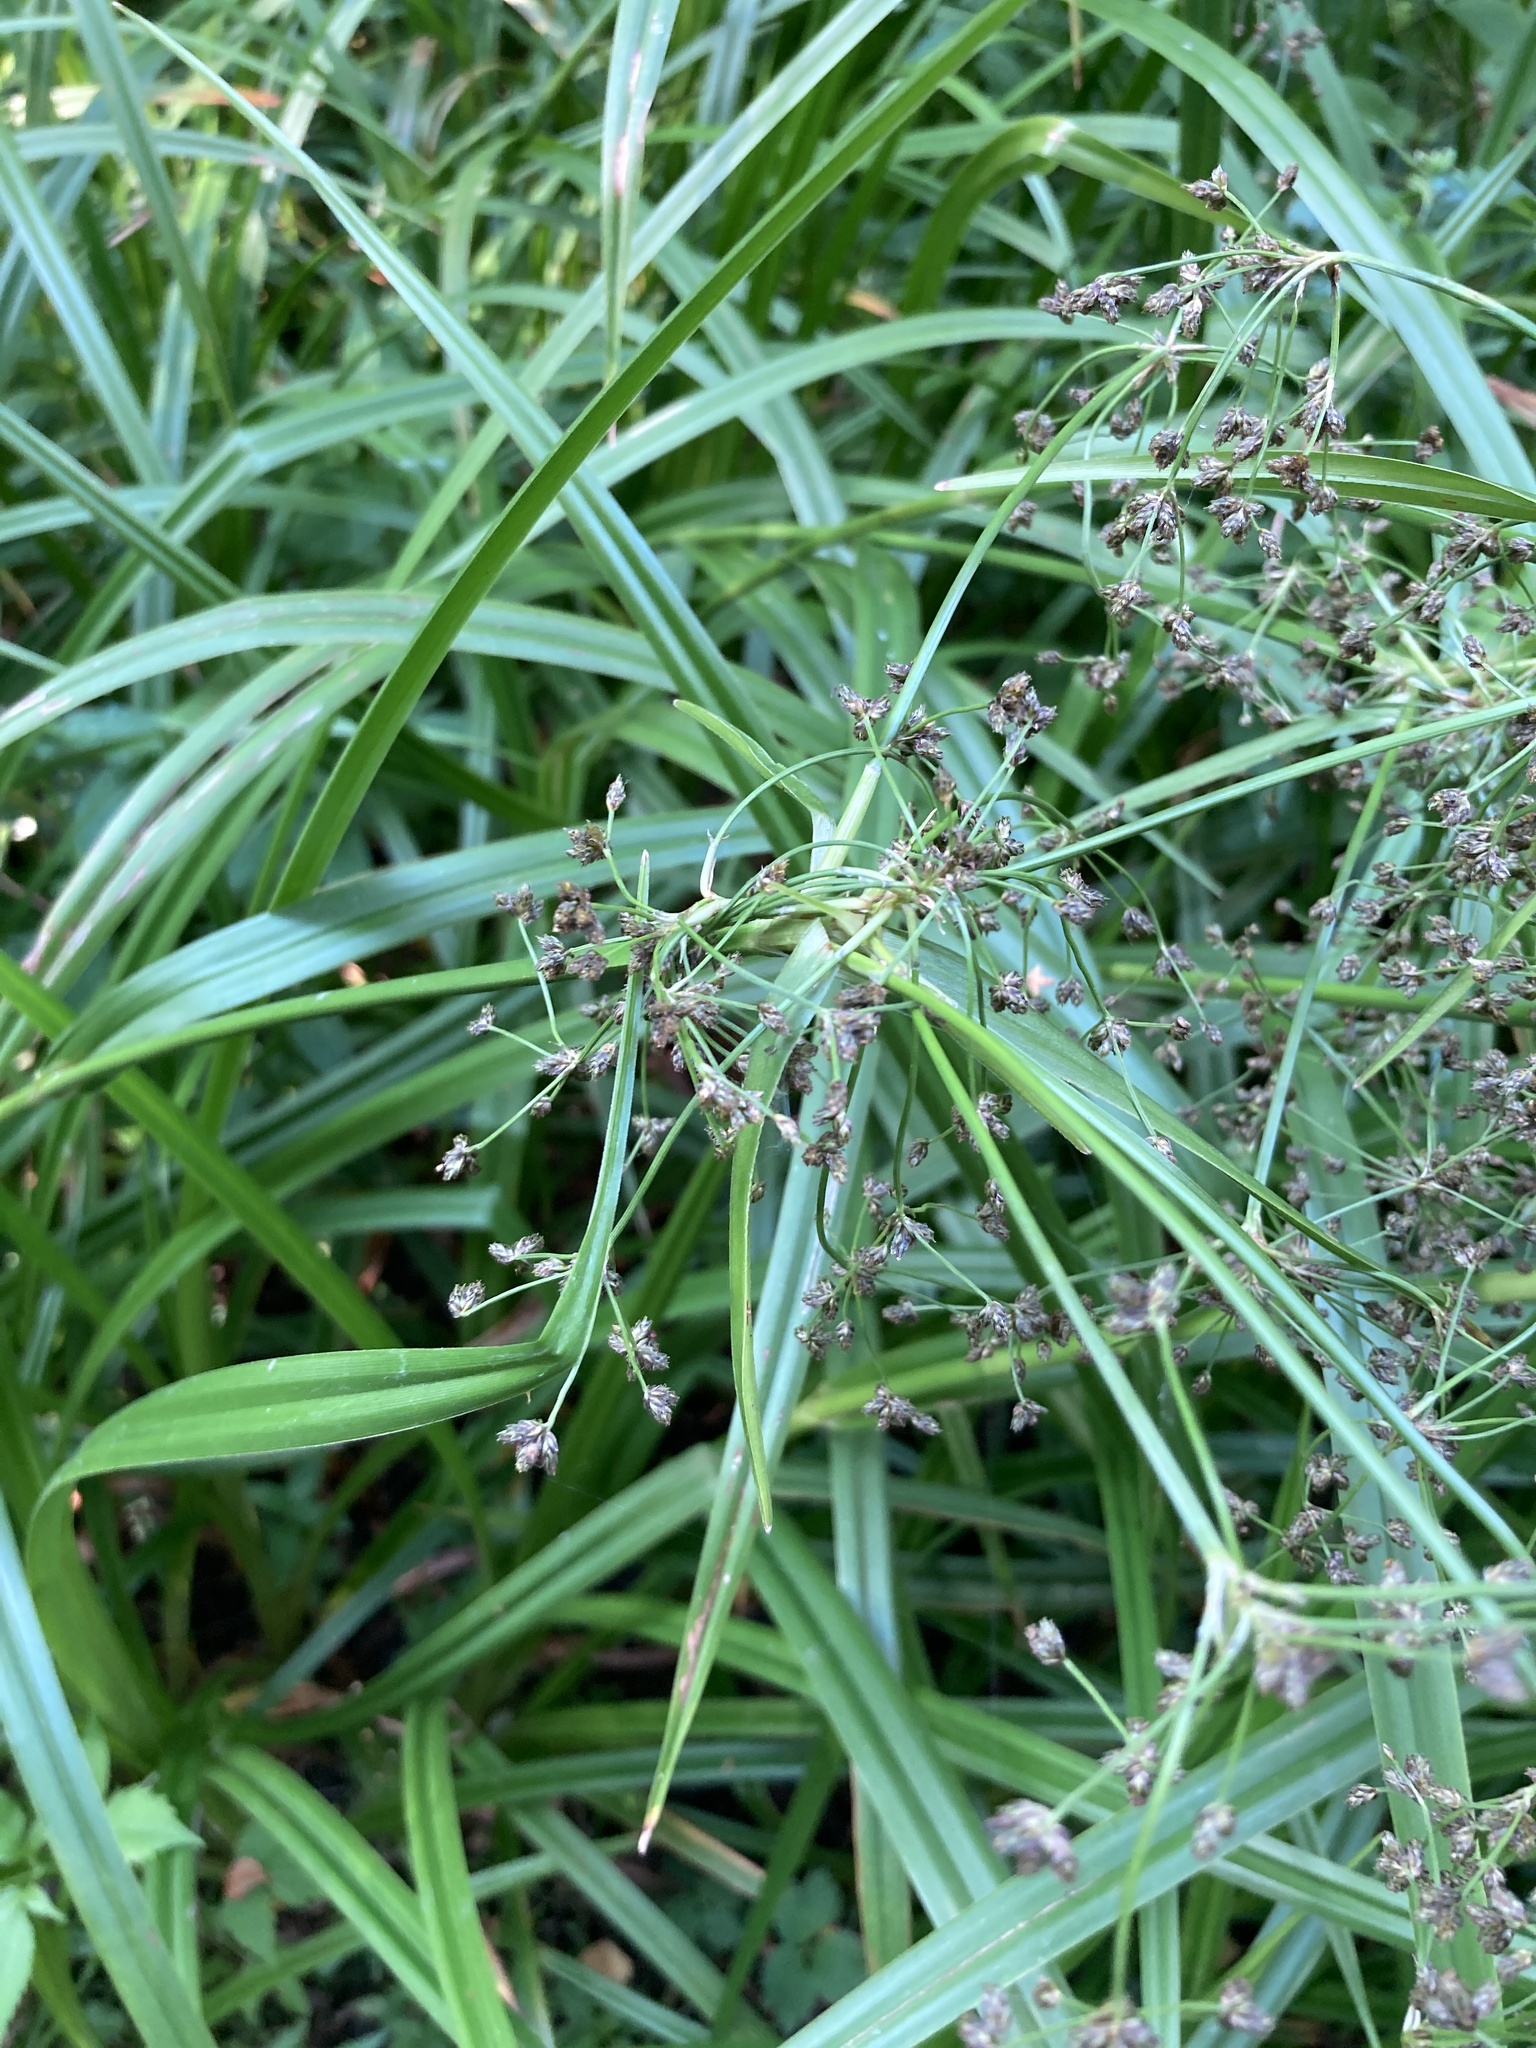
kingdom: Plantae
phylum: Tracheophyta
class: Liliopsida
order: Poales
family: Cyperaceae
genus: Scirpus
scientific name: Scirpus sylvaticus
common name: Wood club-rush
